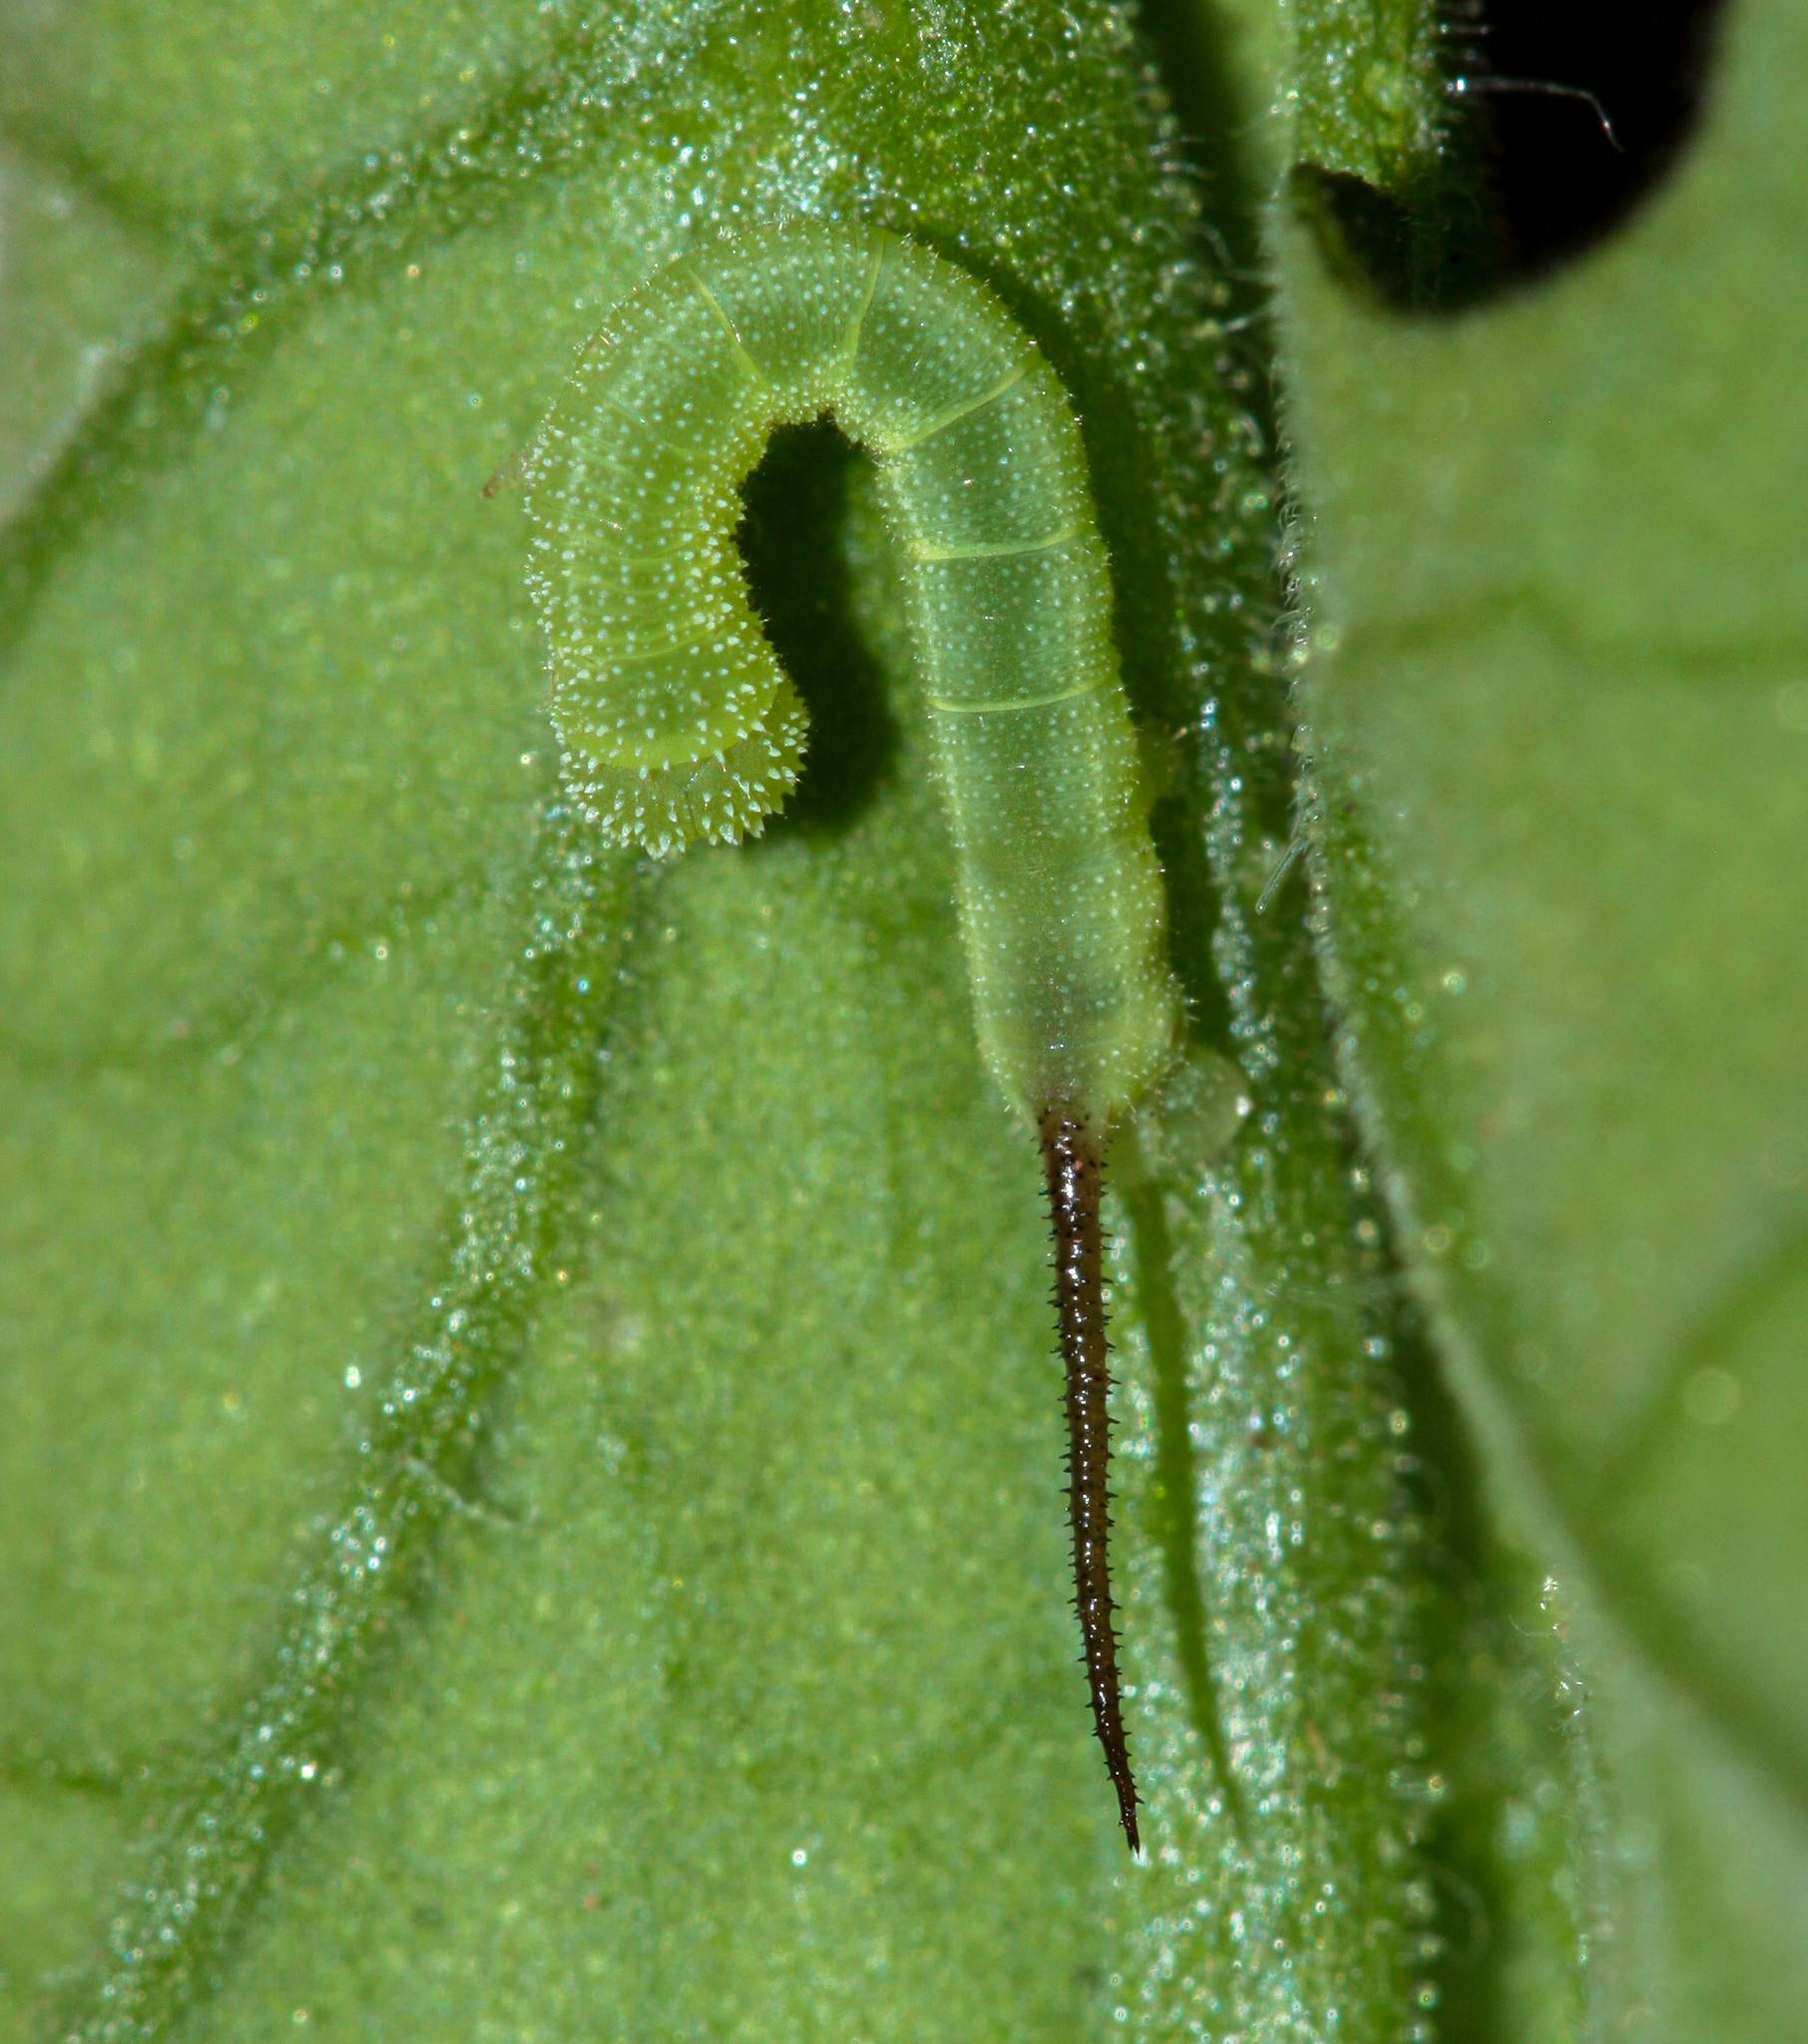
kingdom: Animalia
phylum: Arthropoda
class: Insecta
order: Lepidoptera
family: Sphingidae
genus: Manduca
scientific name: Manduca sexta
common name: Carolina sphinx
